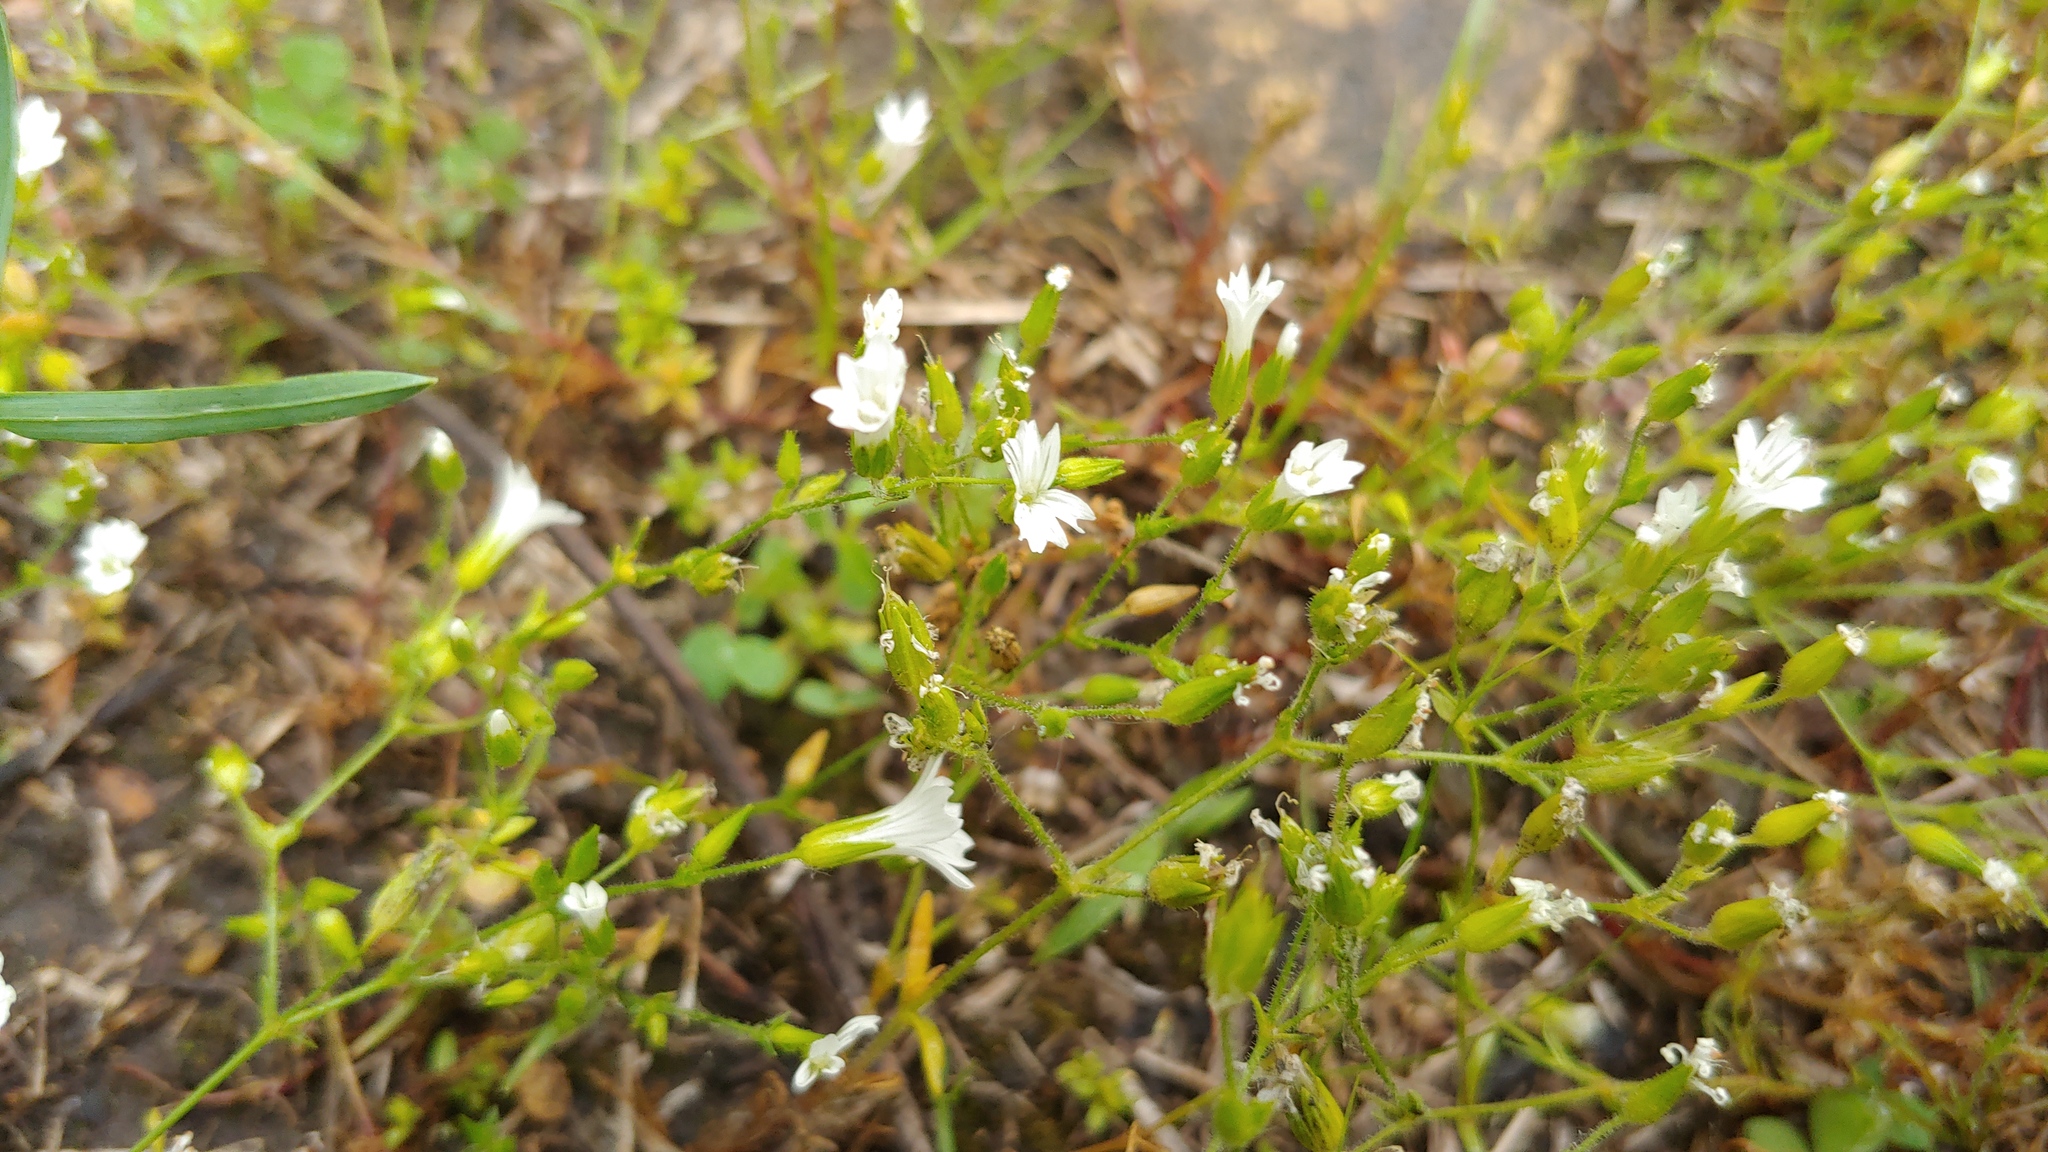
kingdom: Plantae
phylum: Tracheophyta
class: Magnoliopsida
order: Caryophyllales
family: Caryophyllaceae
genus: Mononeuria
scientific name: Mononeuria patula
